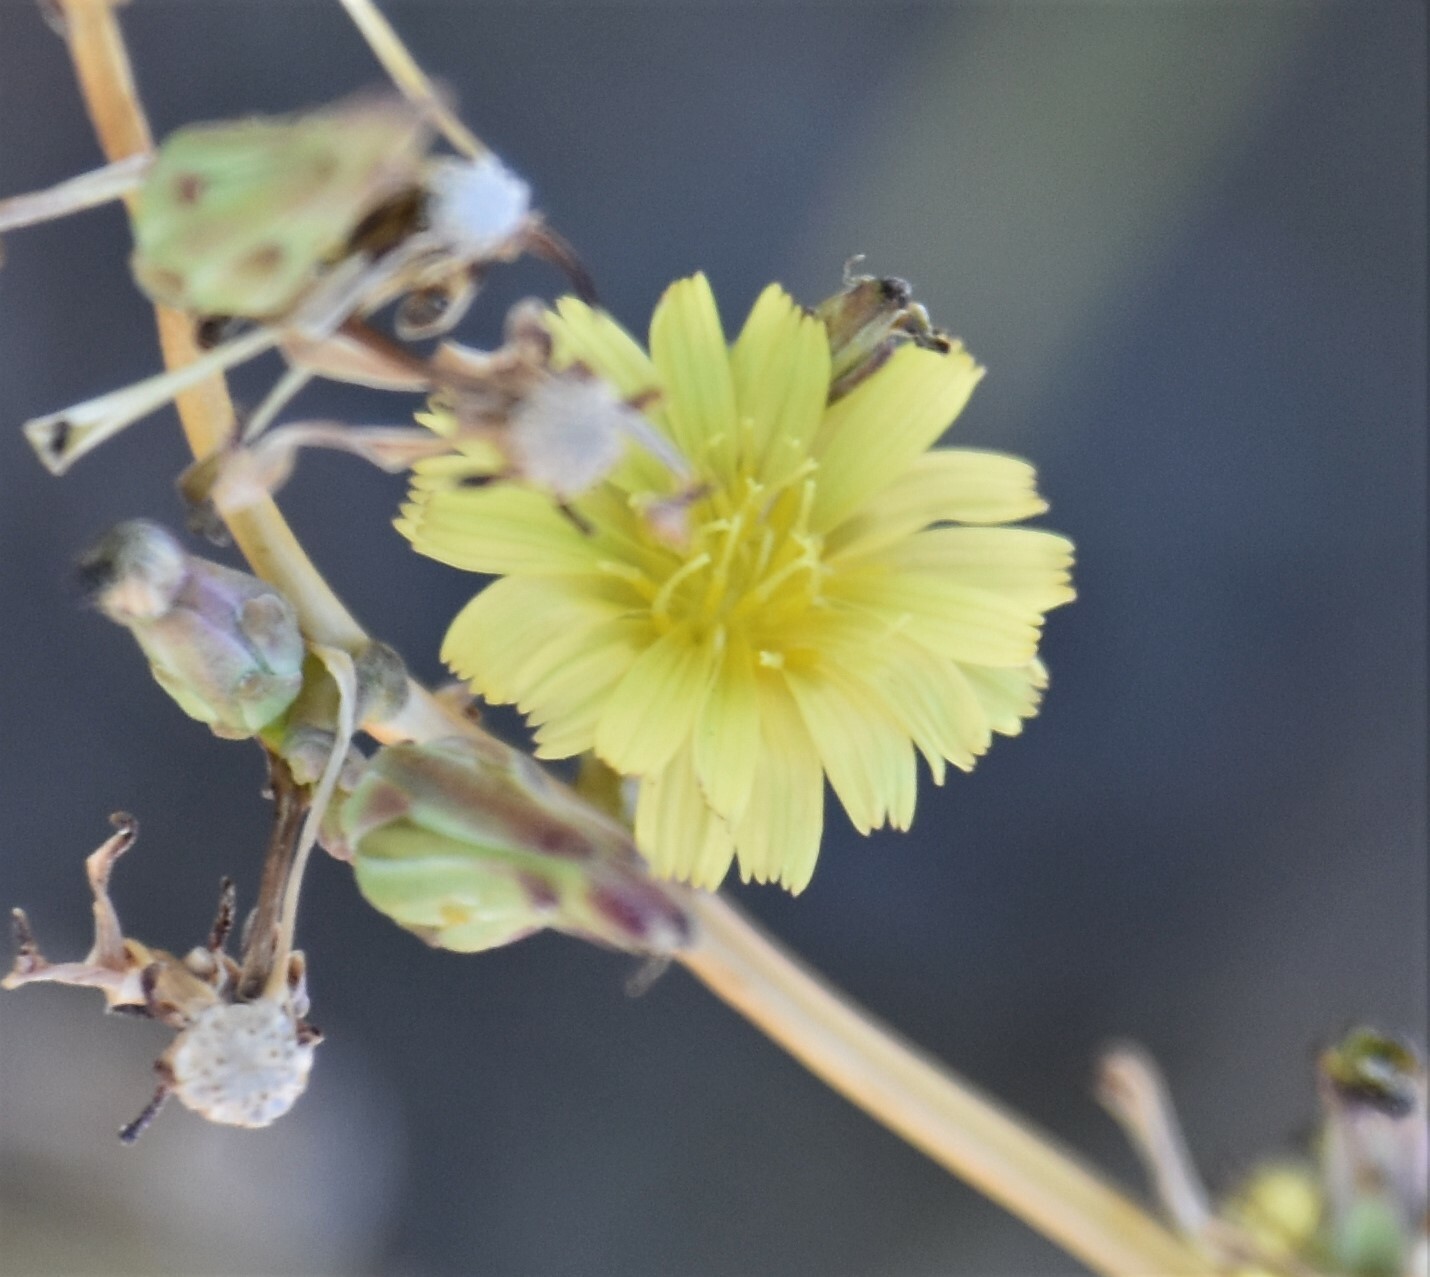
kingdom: Plantae
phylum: Tracheophyta
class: Magnoliopsida
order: Asterales
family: Asteraceae
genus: Lactuca
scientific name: Lactuca serriola
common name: Prickly lettuce
